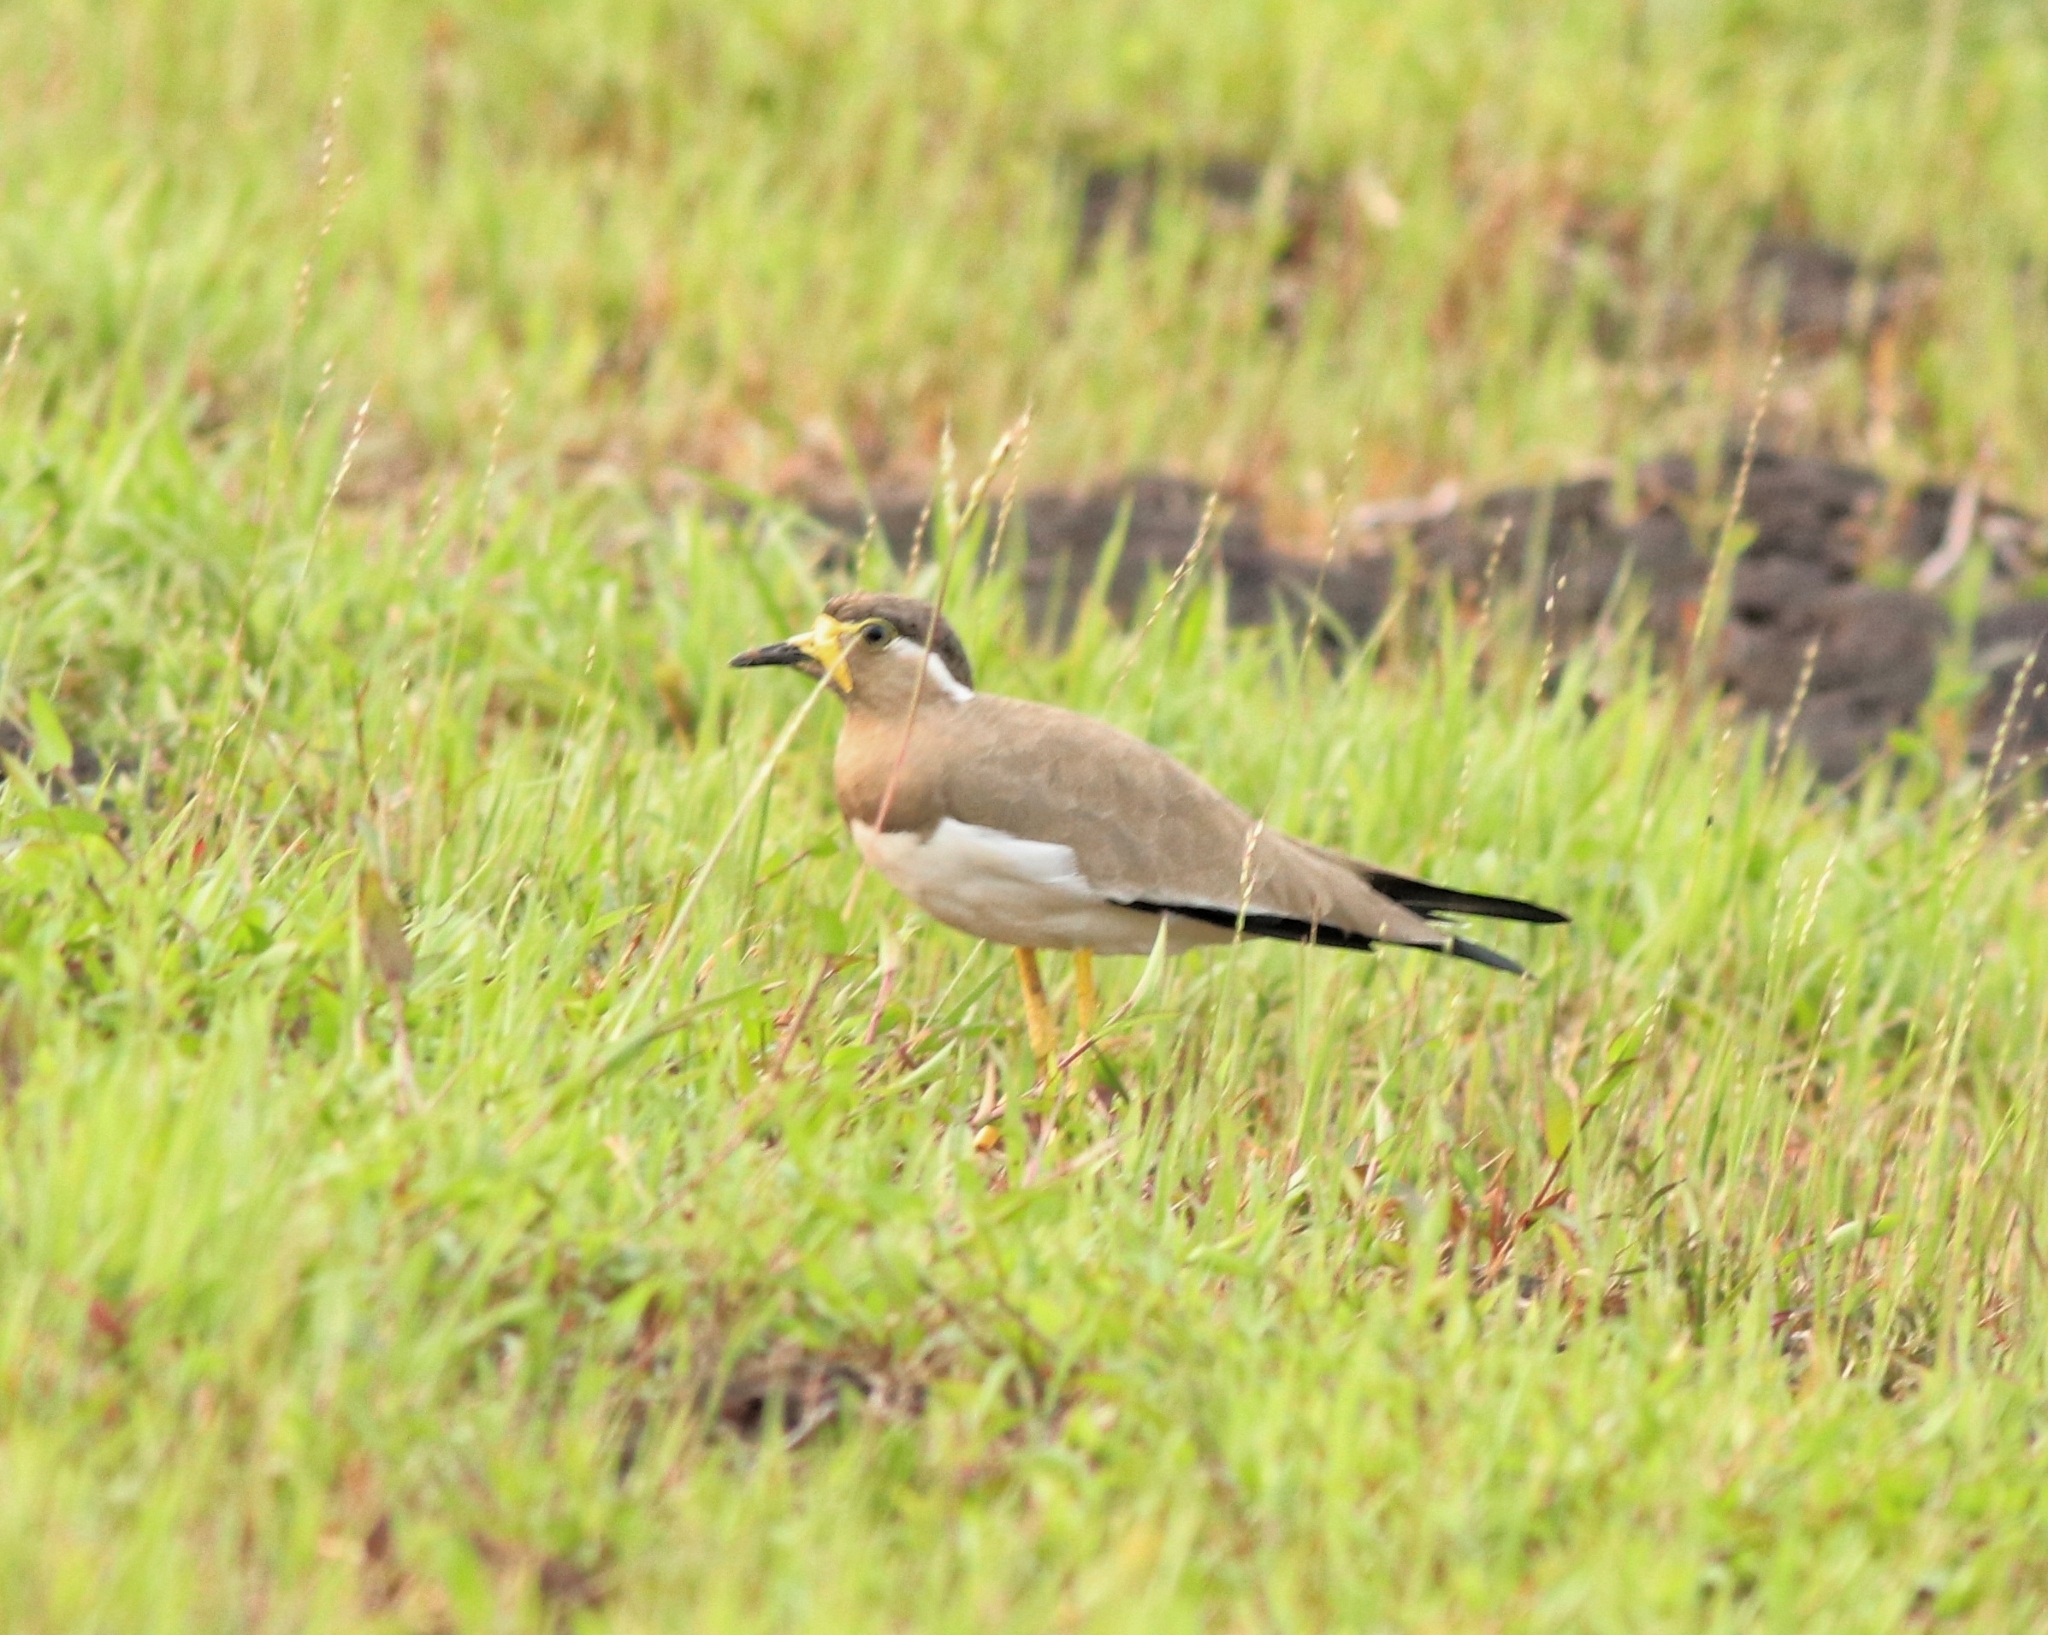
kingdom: Animalia
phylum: Chordata
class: Aves
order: Charadriiformes
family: Charadriidae
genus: Vanellus
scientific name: Vanellus malabaricus
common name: Yellow-wattled lapwing
